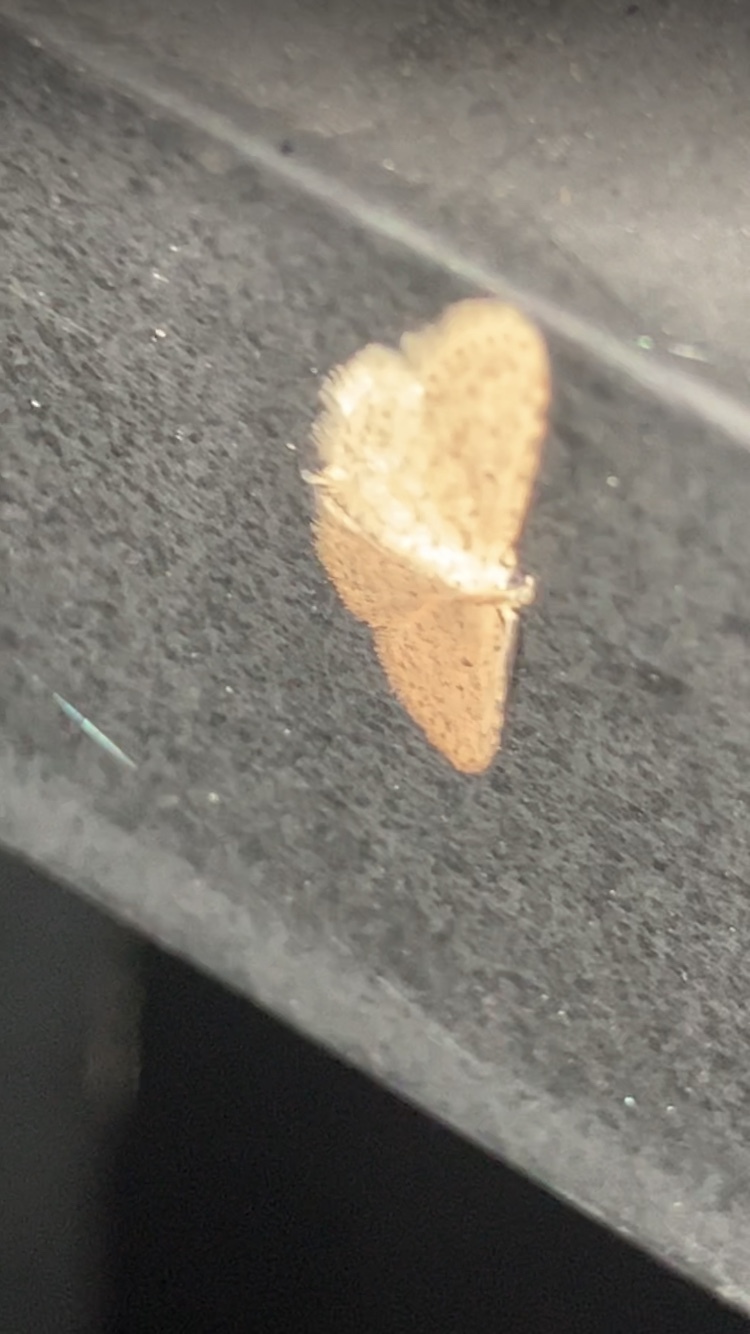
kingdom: Animalia
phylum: Arthropoda
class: Insecta
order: Lepidoptera
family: Erebidae
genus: Sigela
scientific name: Sigela
